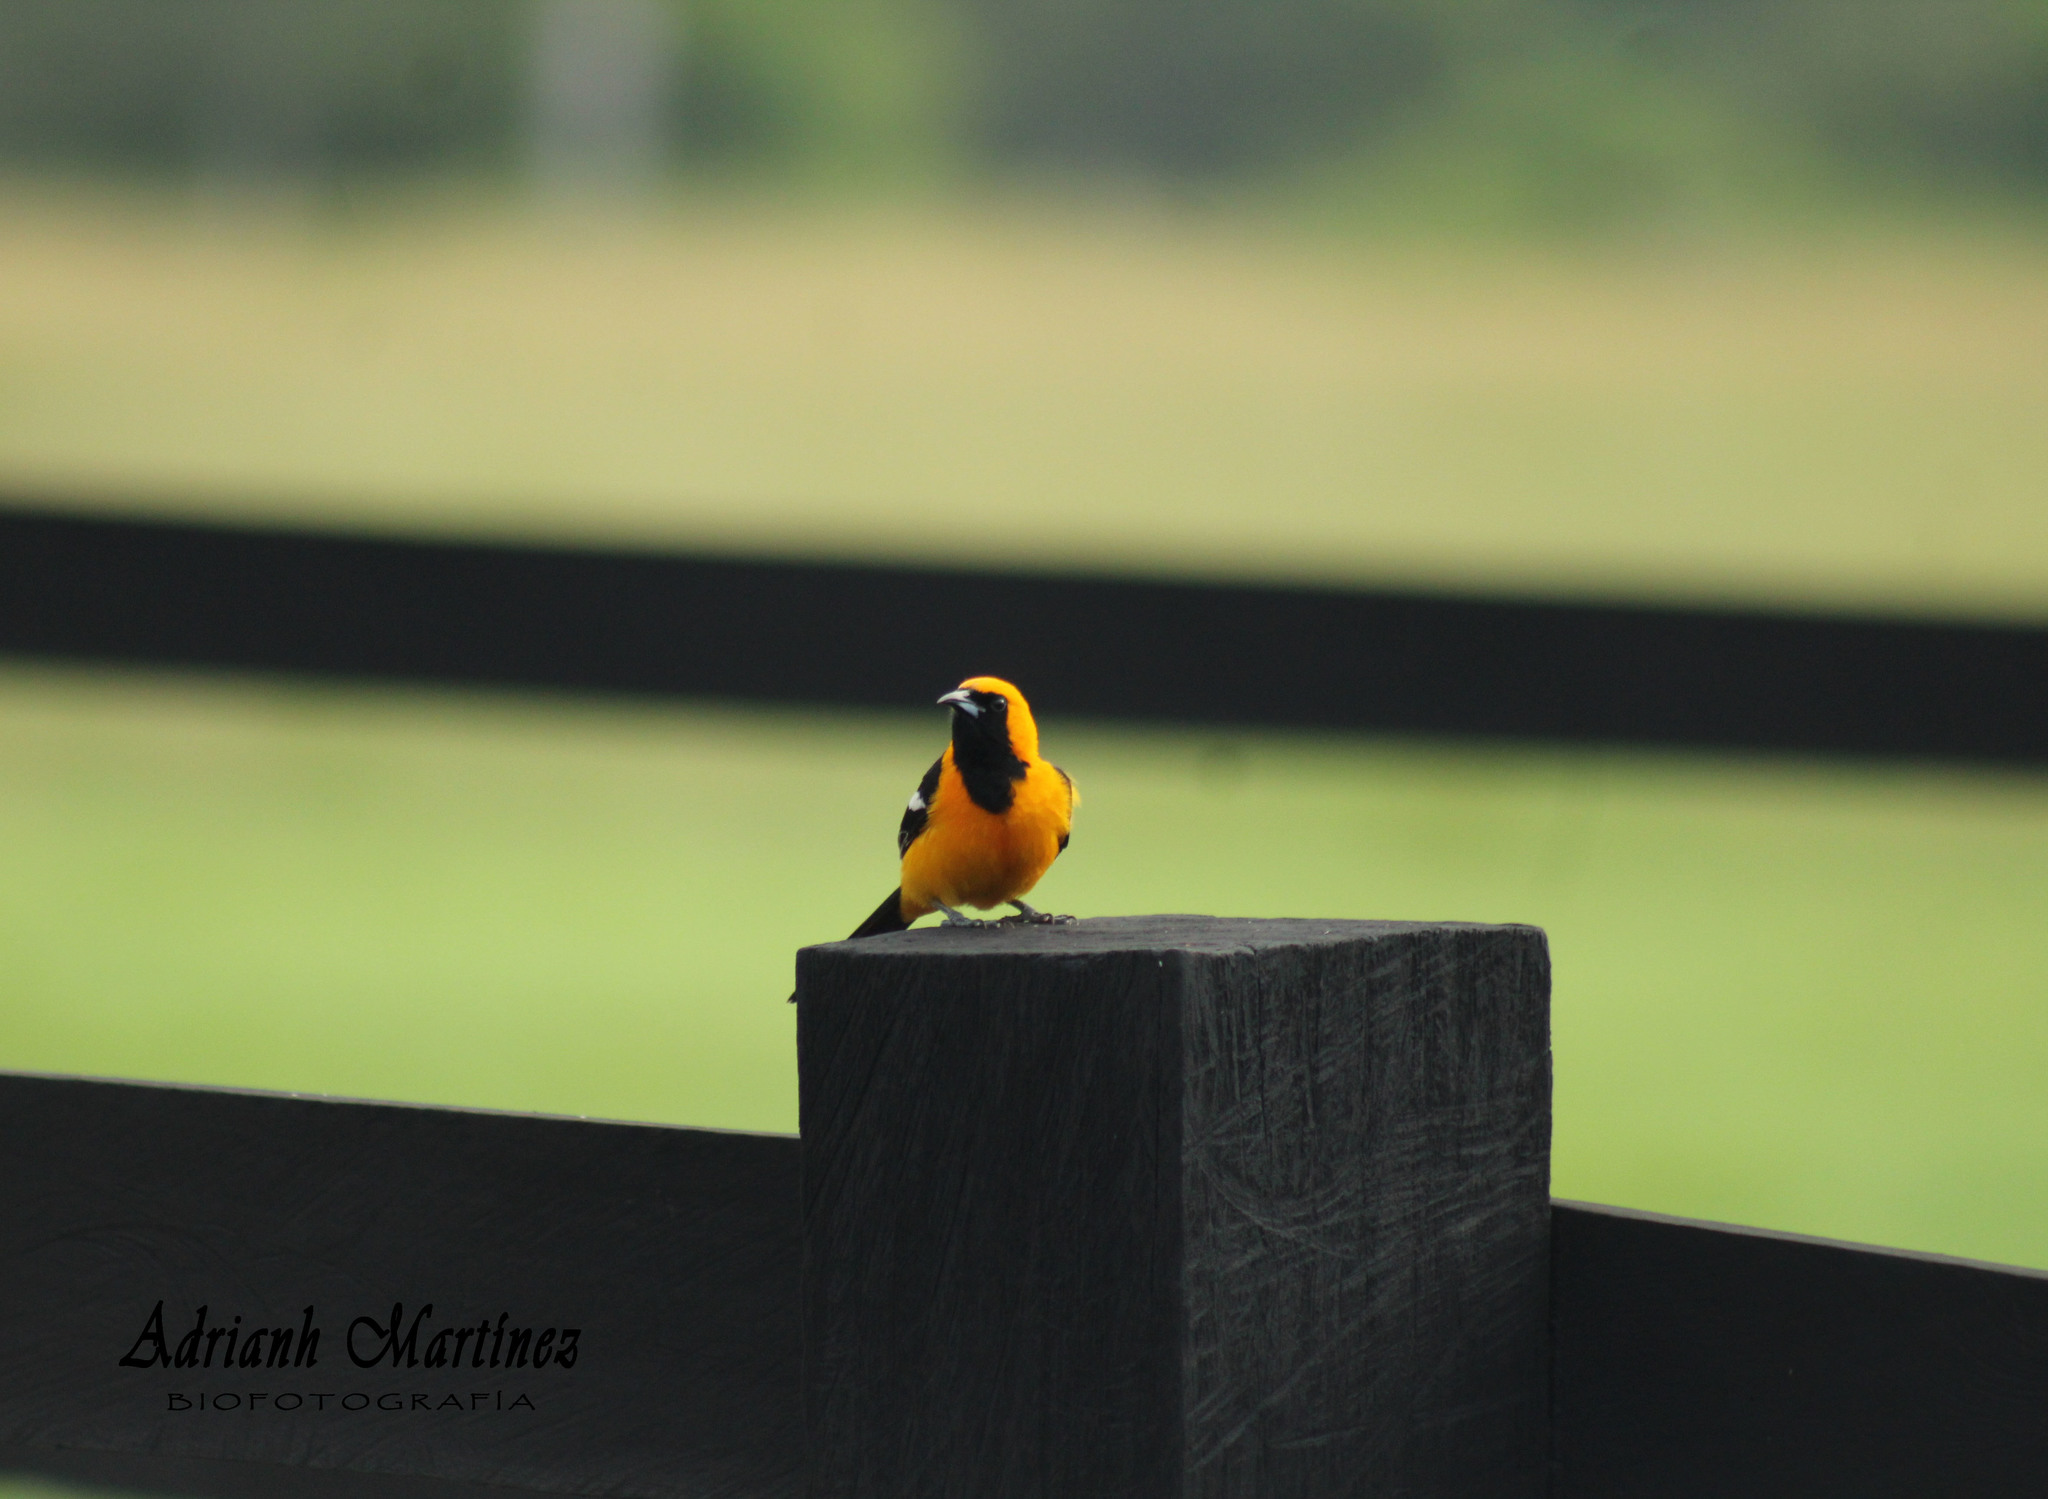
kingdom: Animalia
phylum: Chordata
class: Aves
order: Passeriformes
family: Icteridae
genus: Icterus
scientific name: Icterus cucullatus
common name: Hooded oriole
